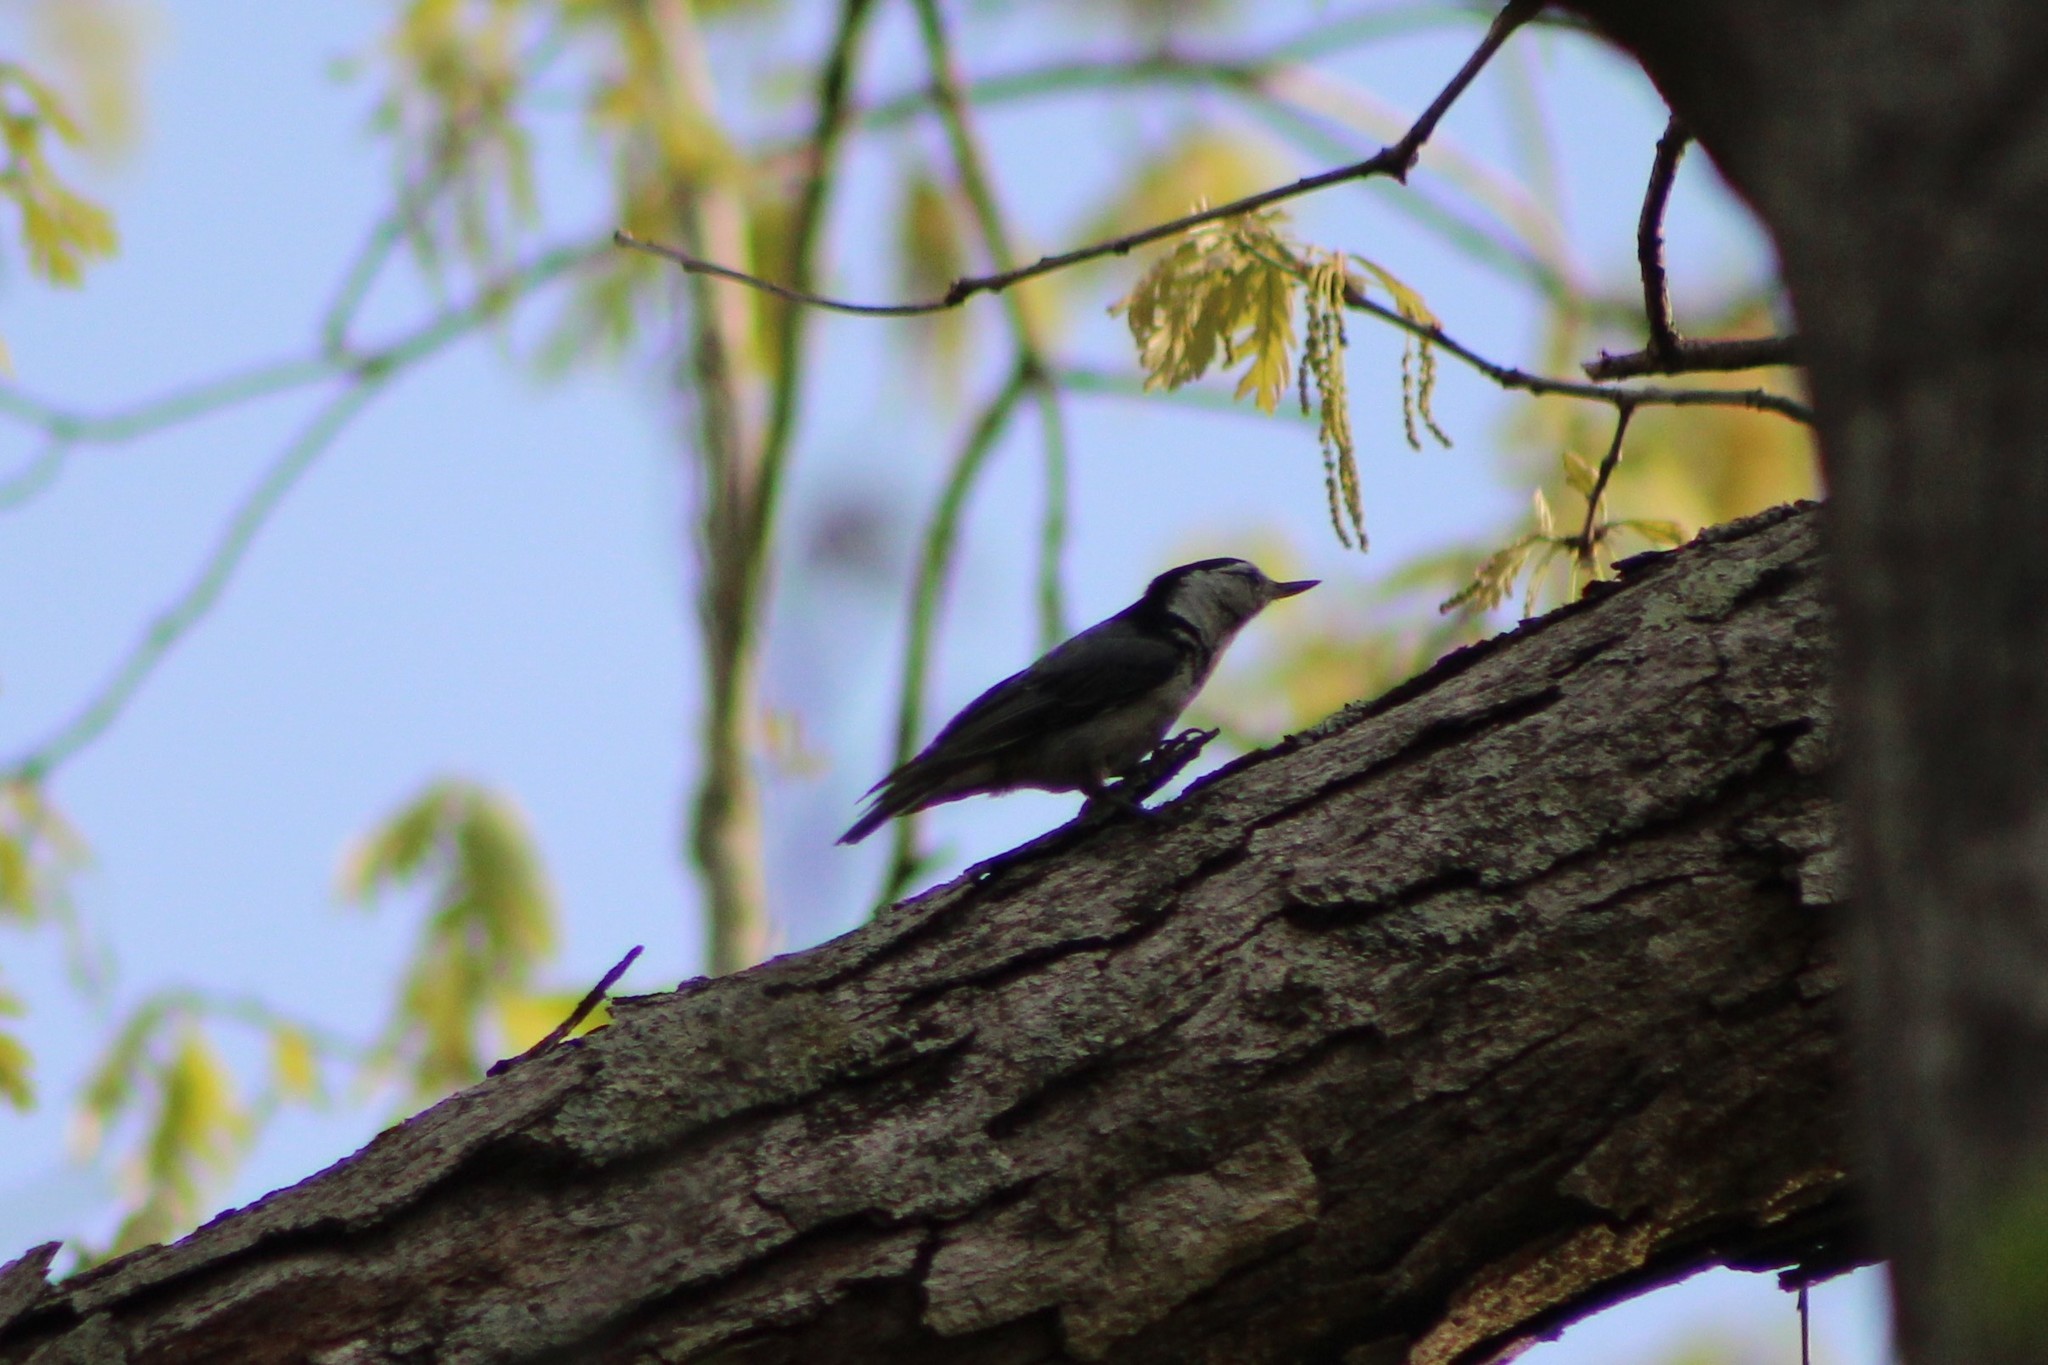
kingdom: Animalia
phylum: Chordata
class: Aves
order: Passeriformes
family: Sittidae
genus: Sitta
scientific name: Sitta carolinensis
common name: White-breasted nuthatch
